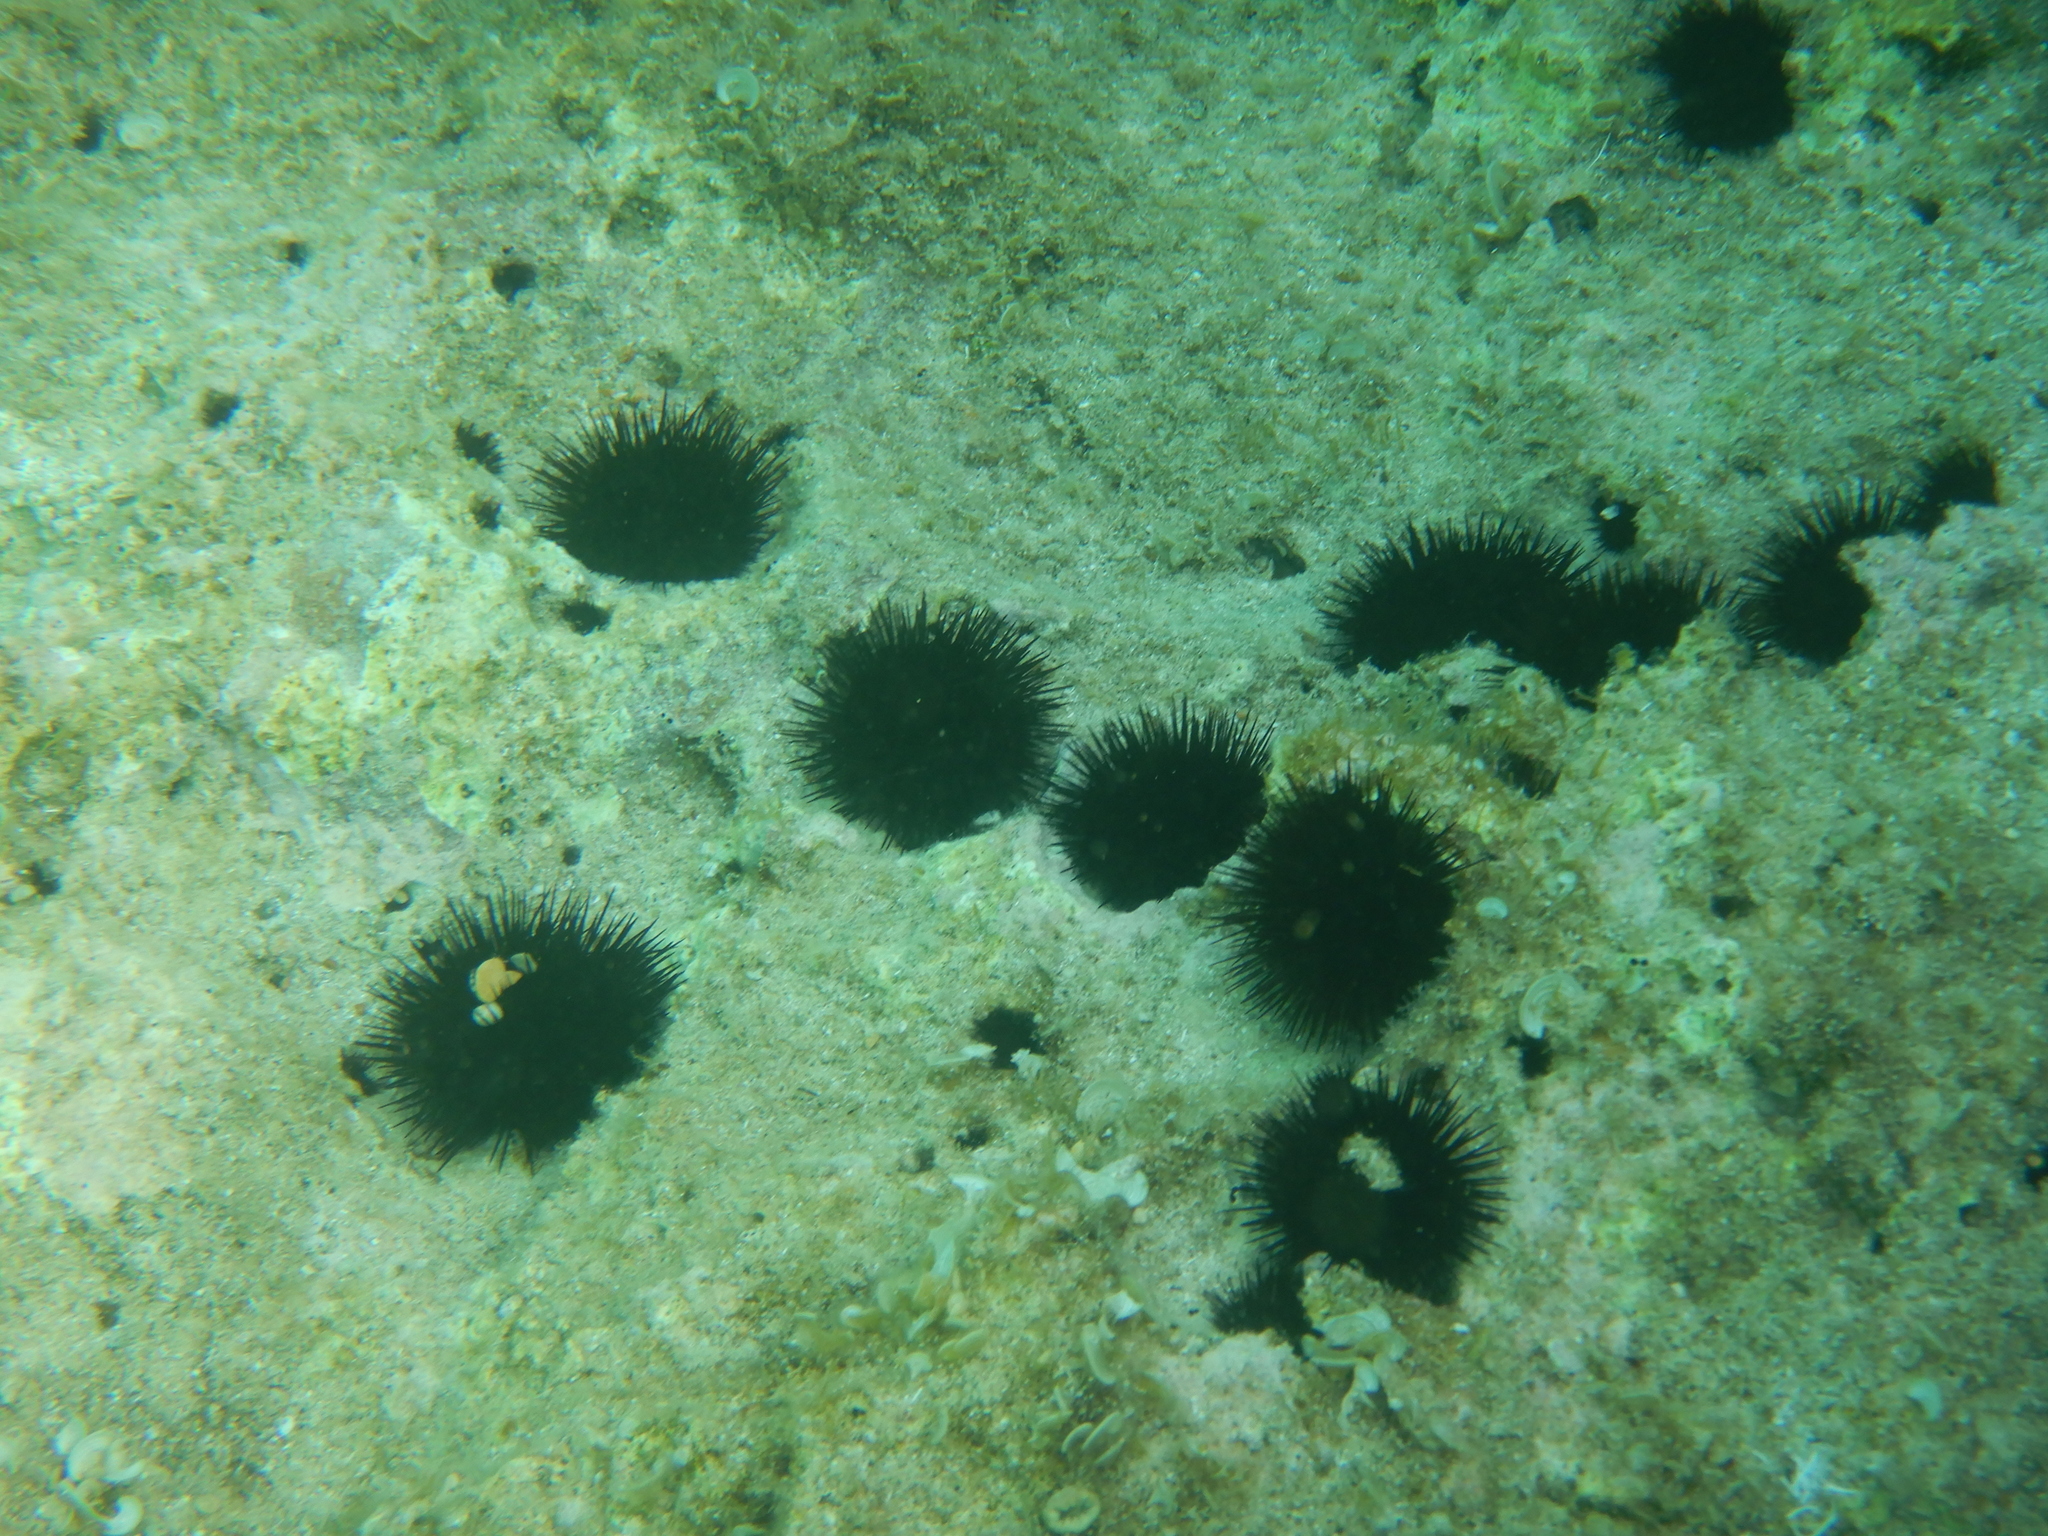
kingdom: Animalia
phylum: Echinodermata
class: Echinoidea
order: Arbacioida
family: Arbaciidae
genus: Arbacia
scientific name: Arbacia lixula
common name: Black sea urchin
